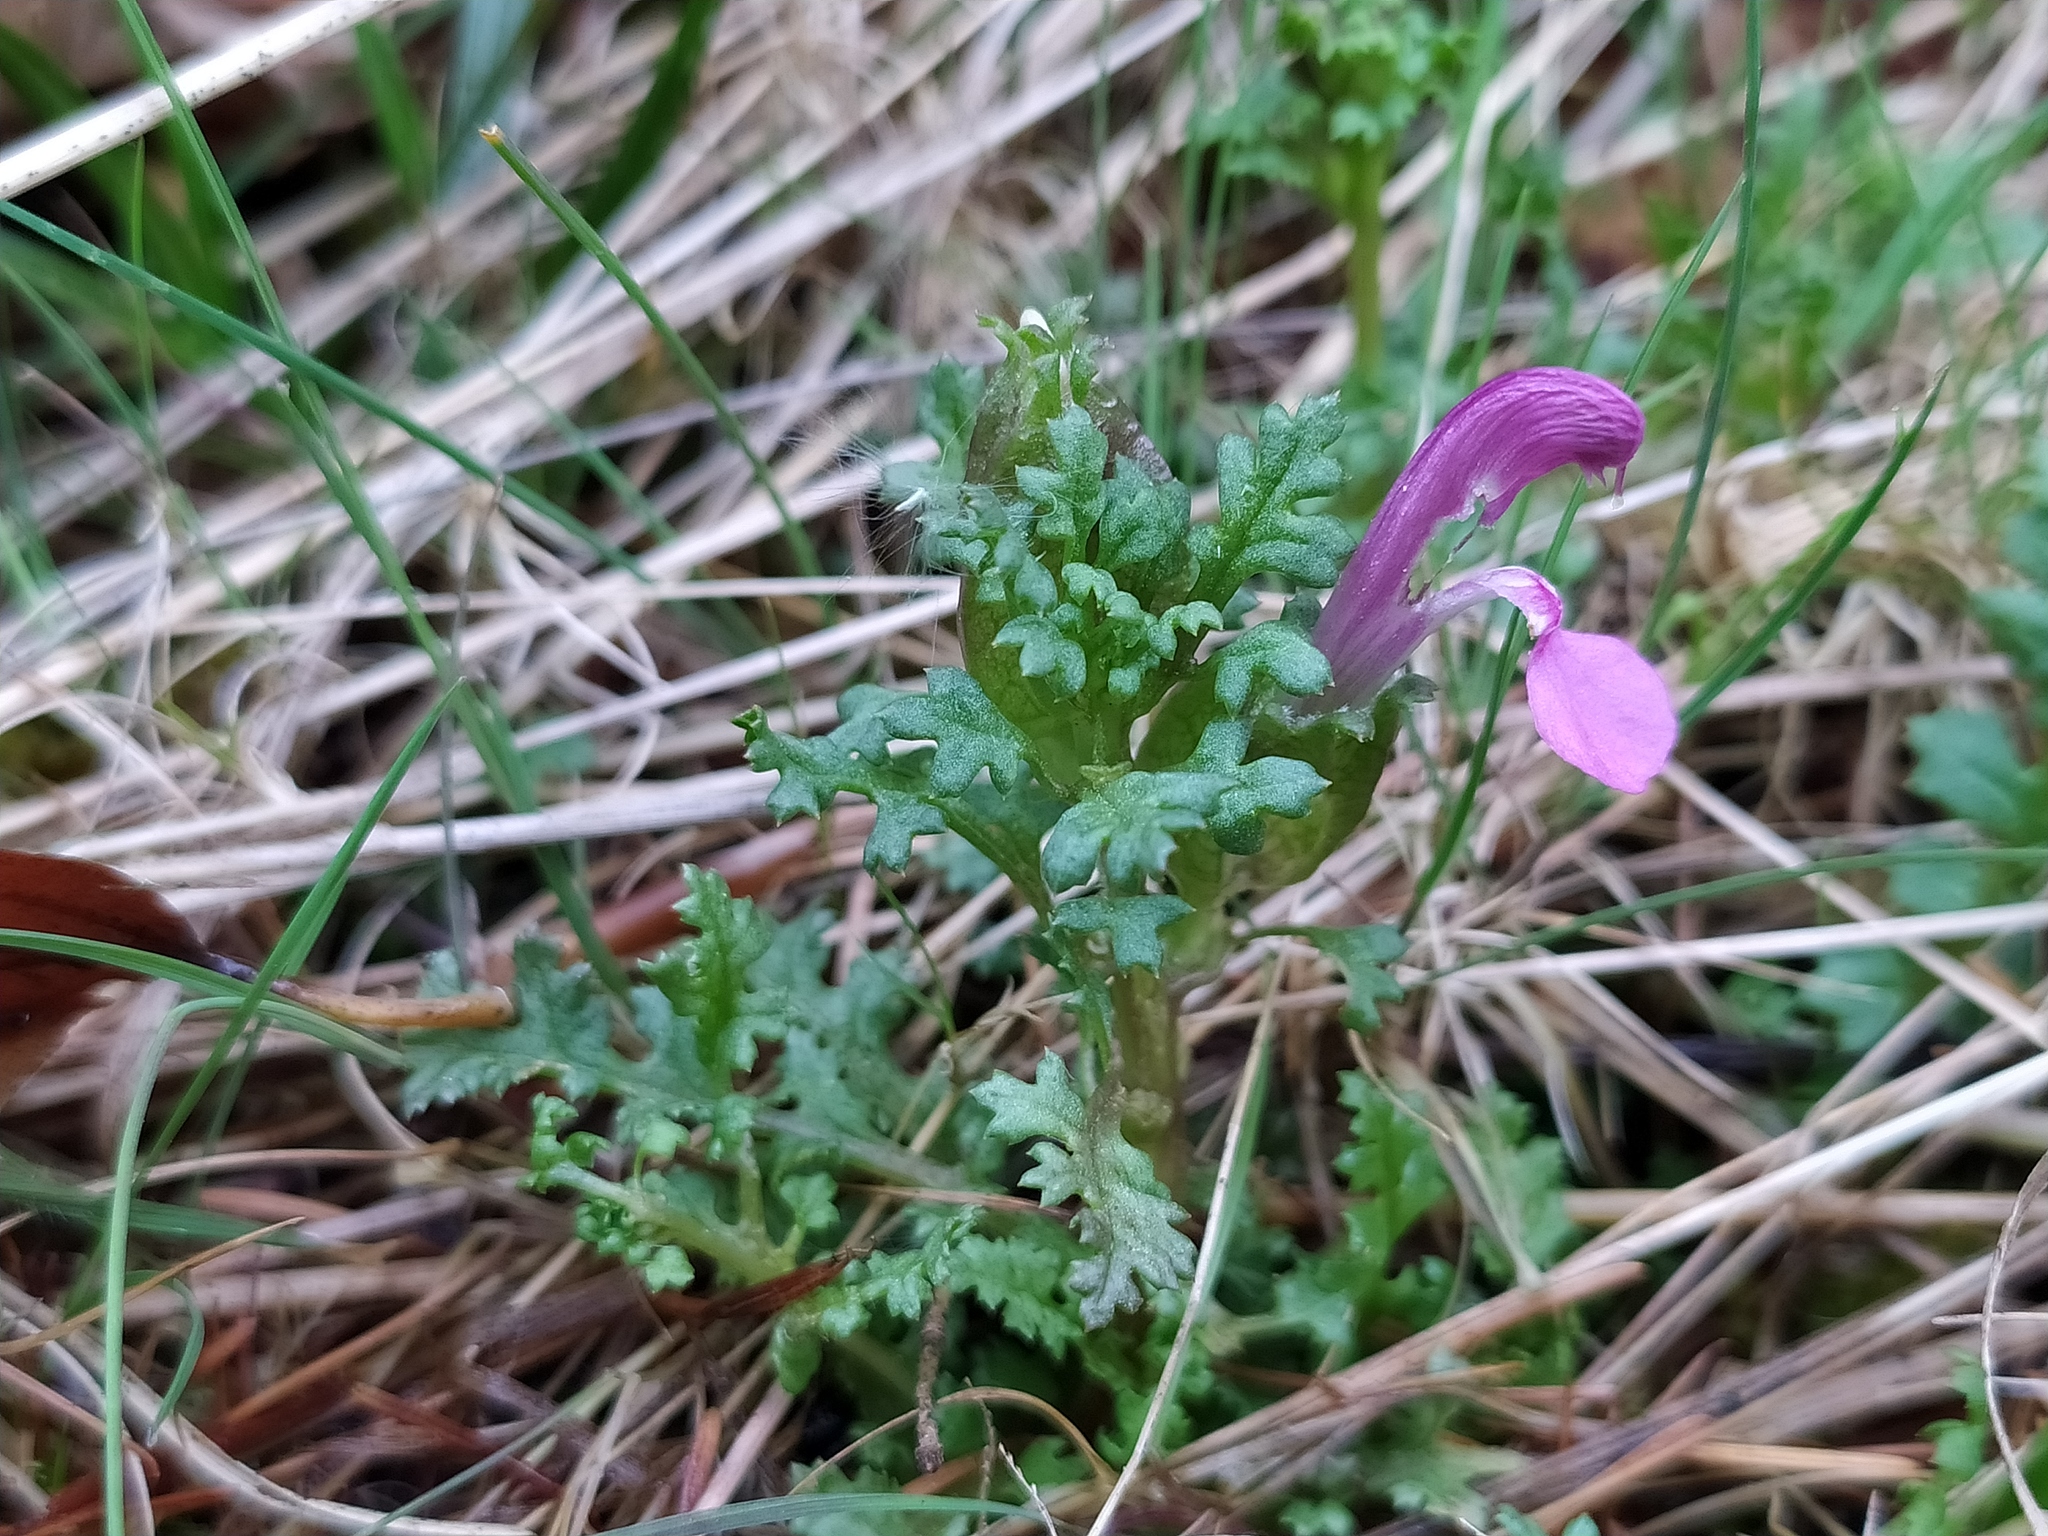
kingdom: Plantae
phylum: Tracheophyta
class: Magnoliopsida
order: Lamiales
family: Orobanchaceae
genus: Pedicularis
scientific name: Pedicularis sylvatica
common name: Lousewort
